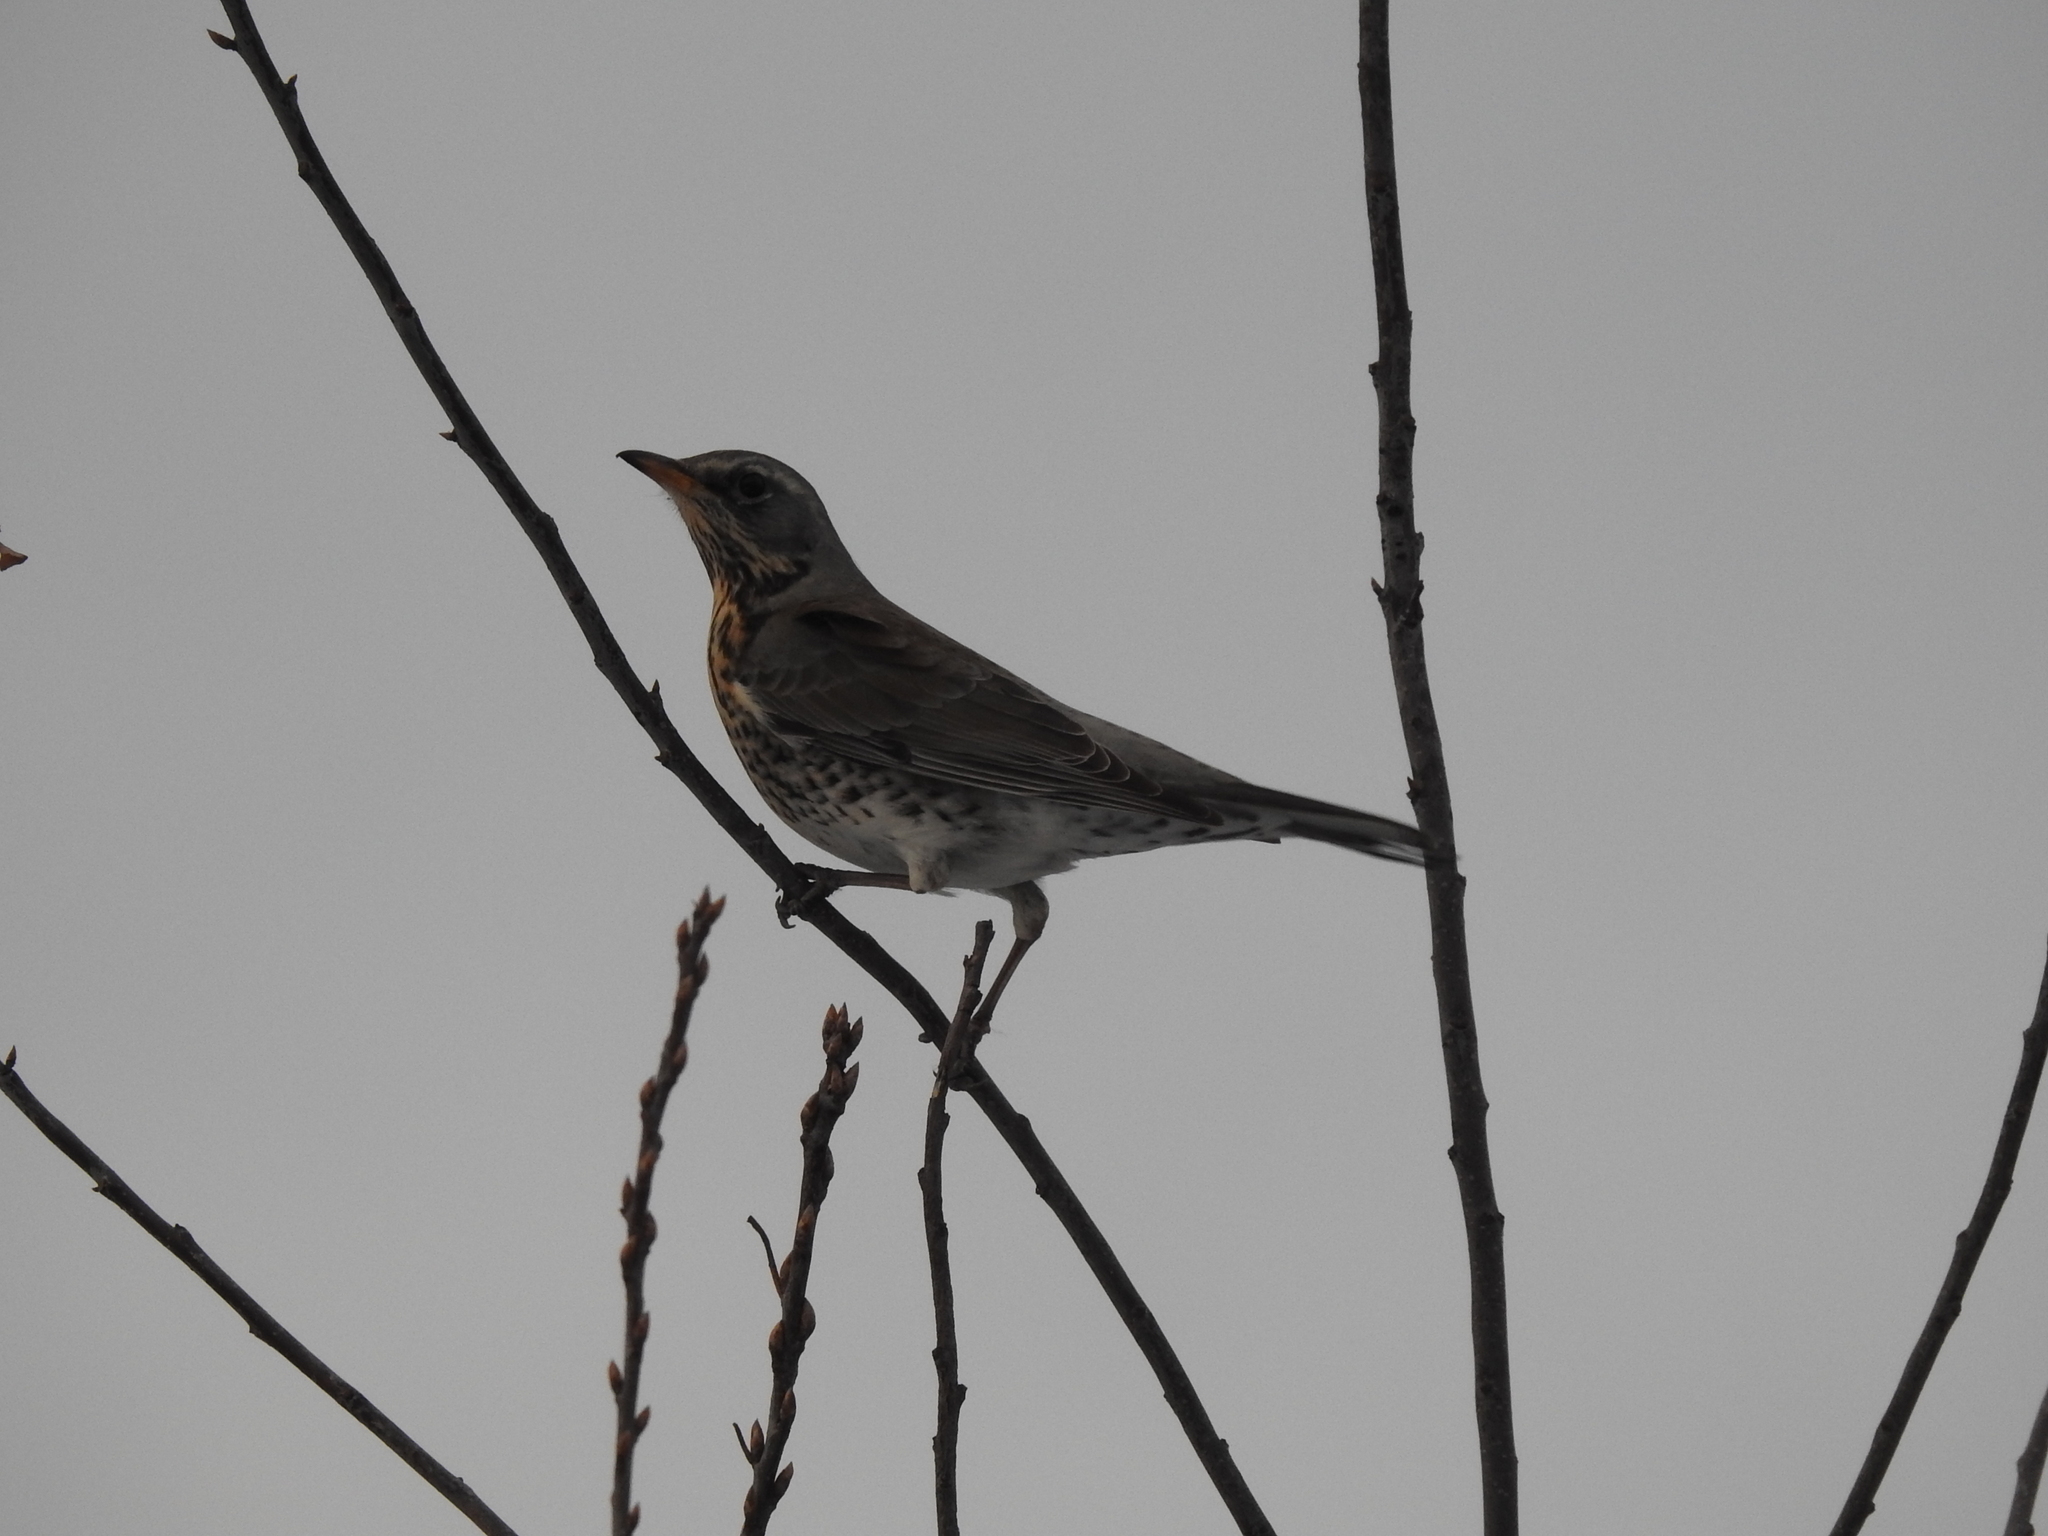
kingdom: Animalia
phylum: Chordata
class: Aves
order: Passeriformes
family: Turdidae
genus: Turdus
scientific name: Turdus pilaris
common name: Fieldfare
